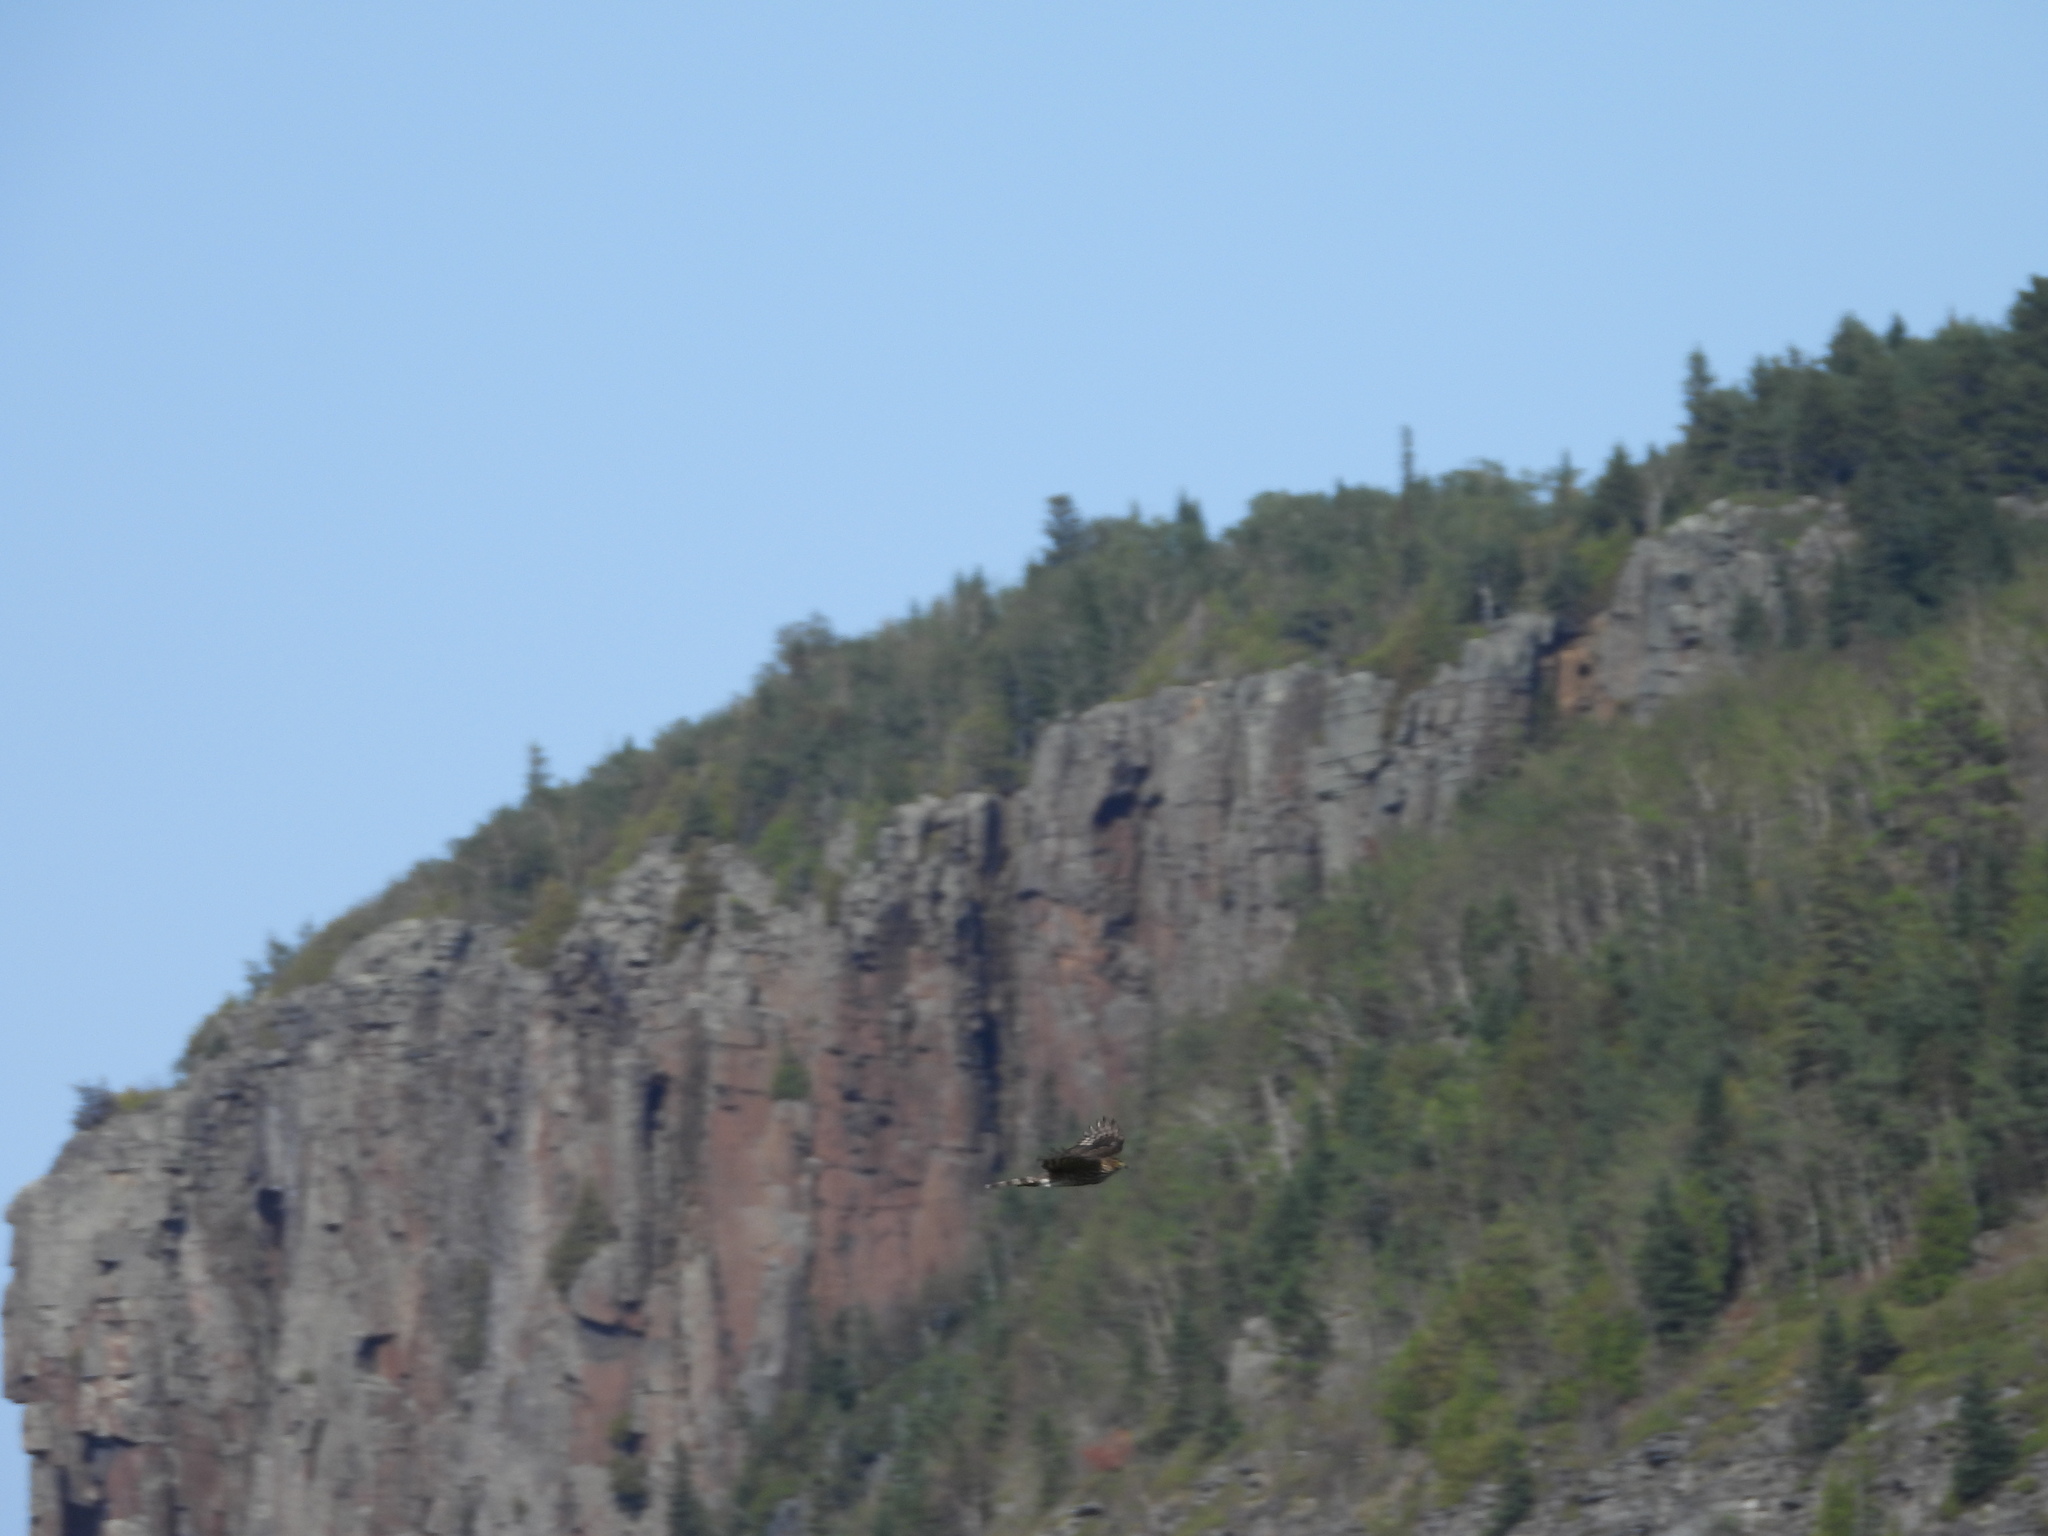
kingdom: Animalia
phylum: Chordata
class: Aves
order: Accipitriformes
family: Accipitridae
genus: Accipiter
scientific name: Accipiter striatus
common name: Sharp-shinned hawk
